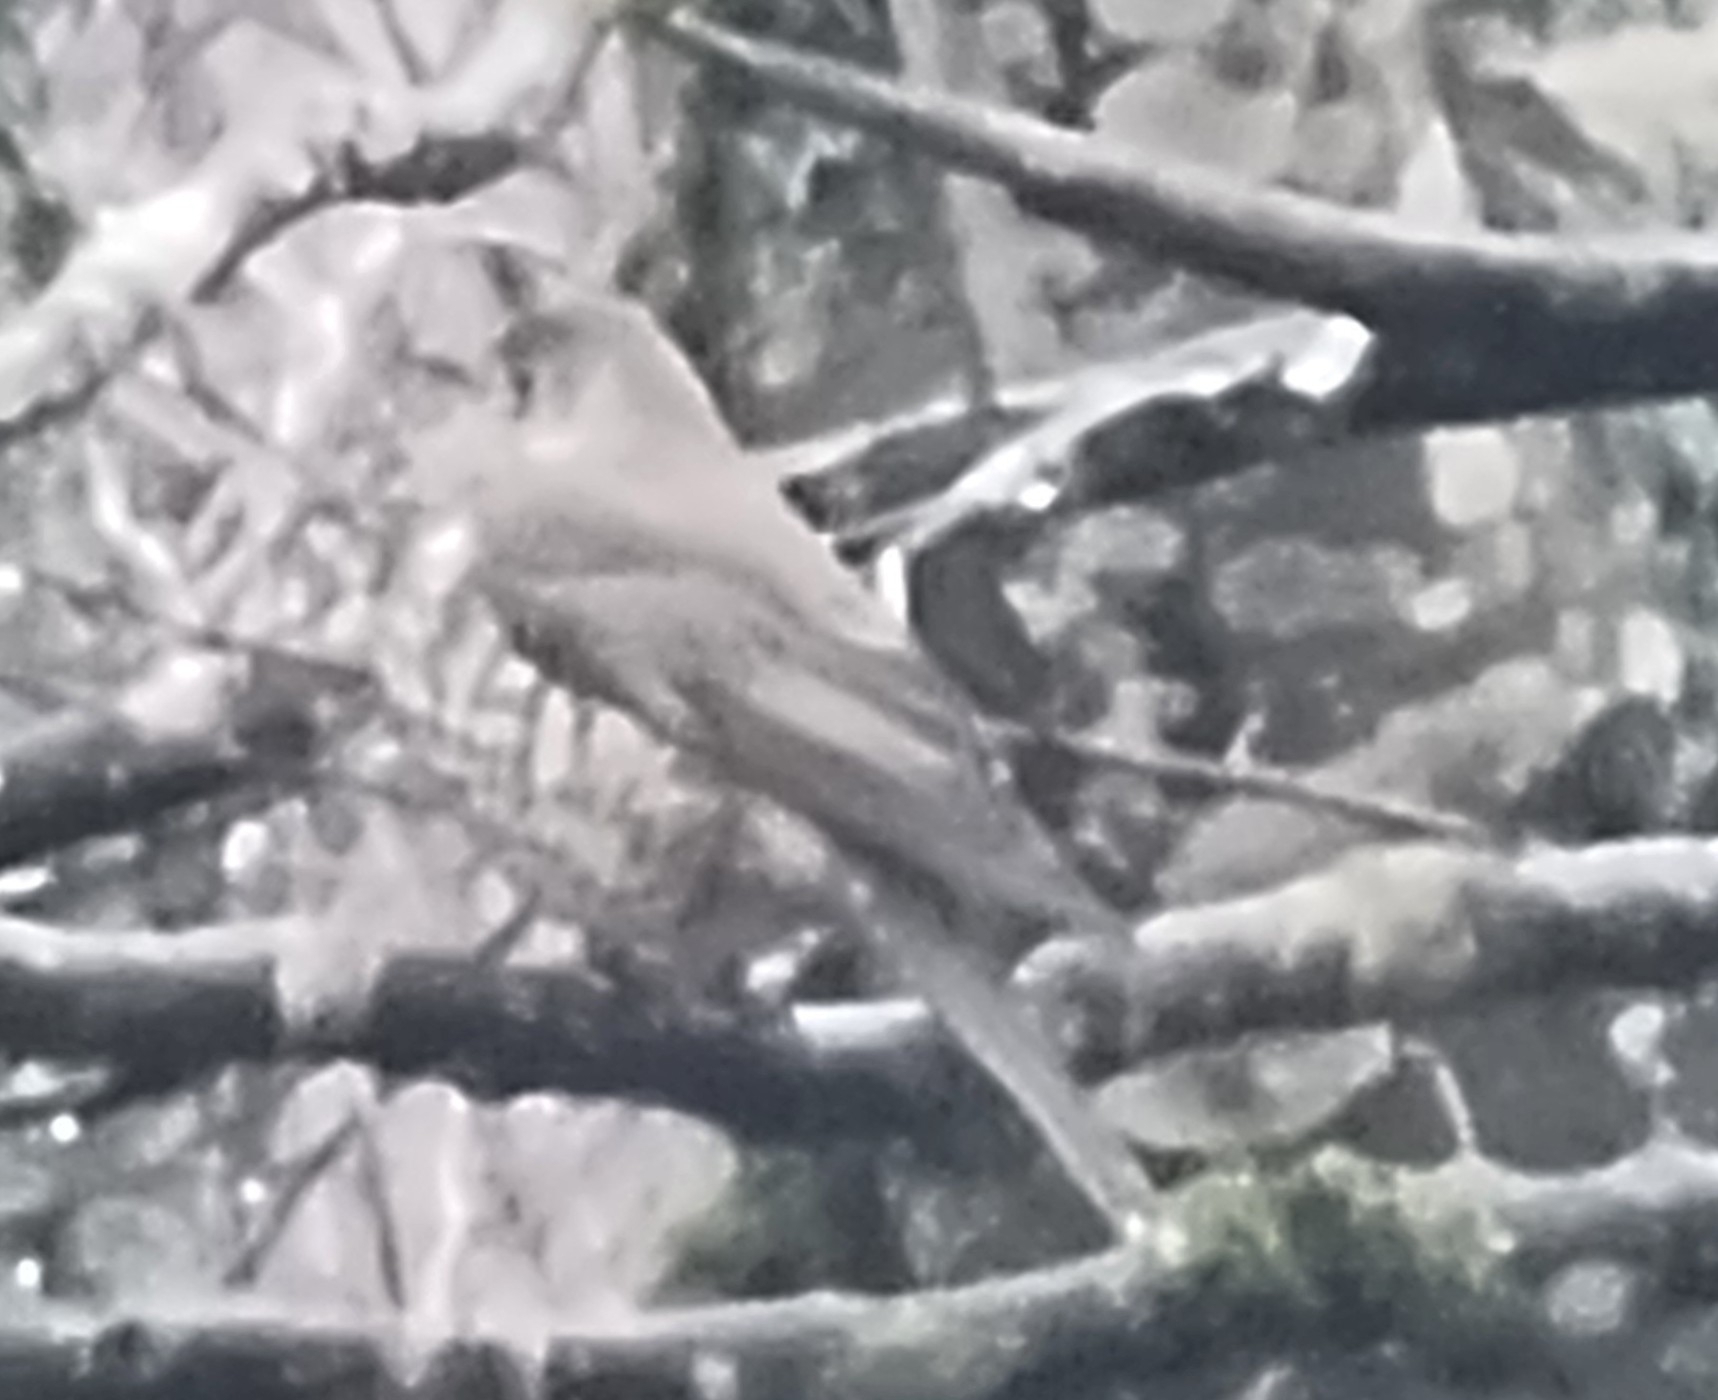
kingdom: Animalia
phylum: Chordata
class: Aves
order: Passeriformes
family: Turdidae
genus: Turdus
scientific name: Turdus viscivorus
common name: Mistle thrush
